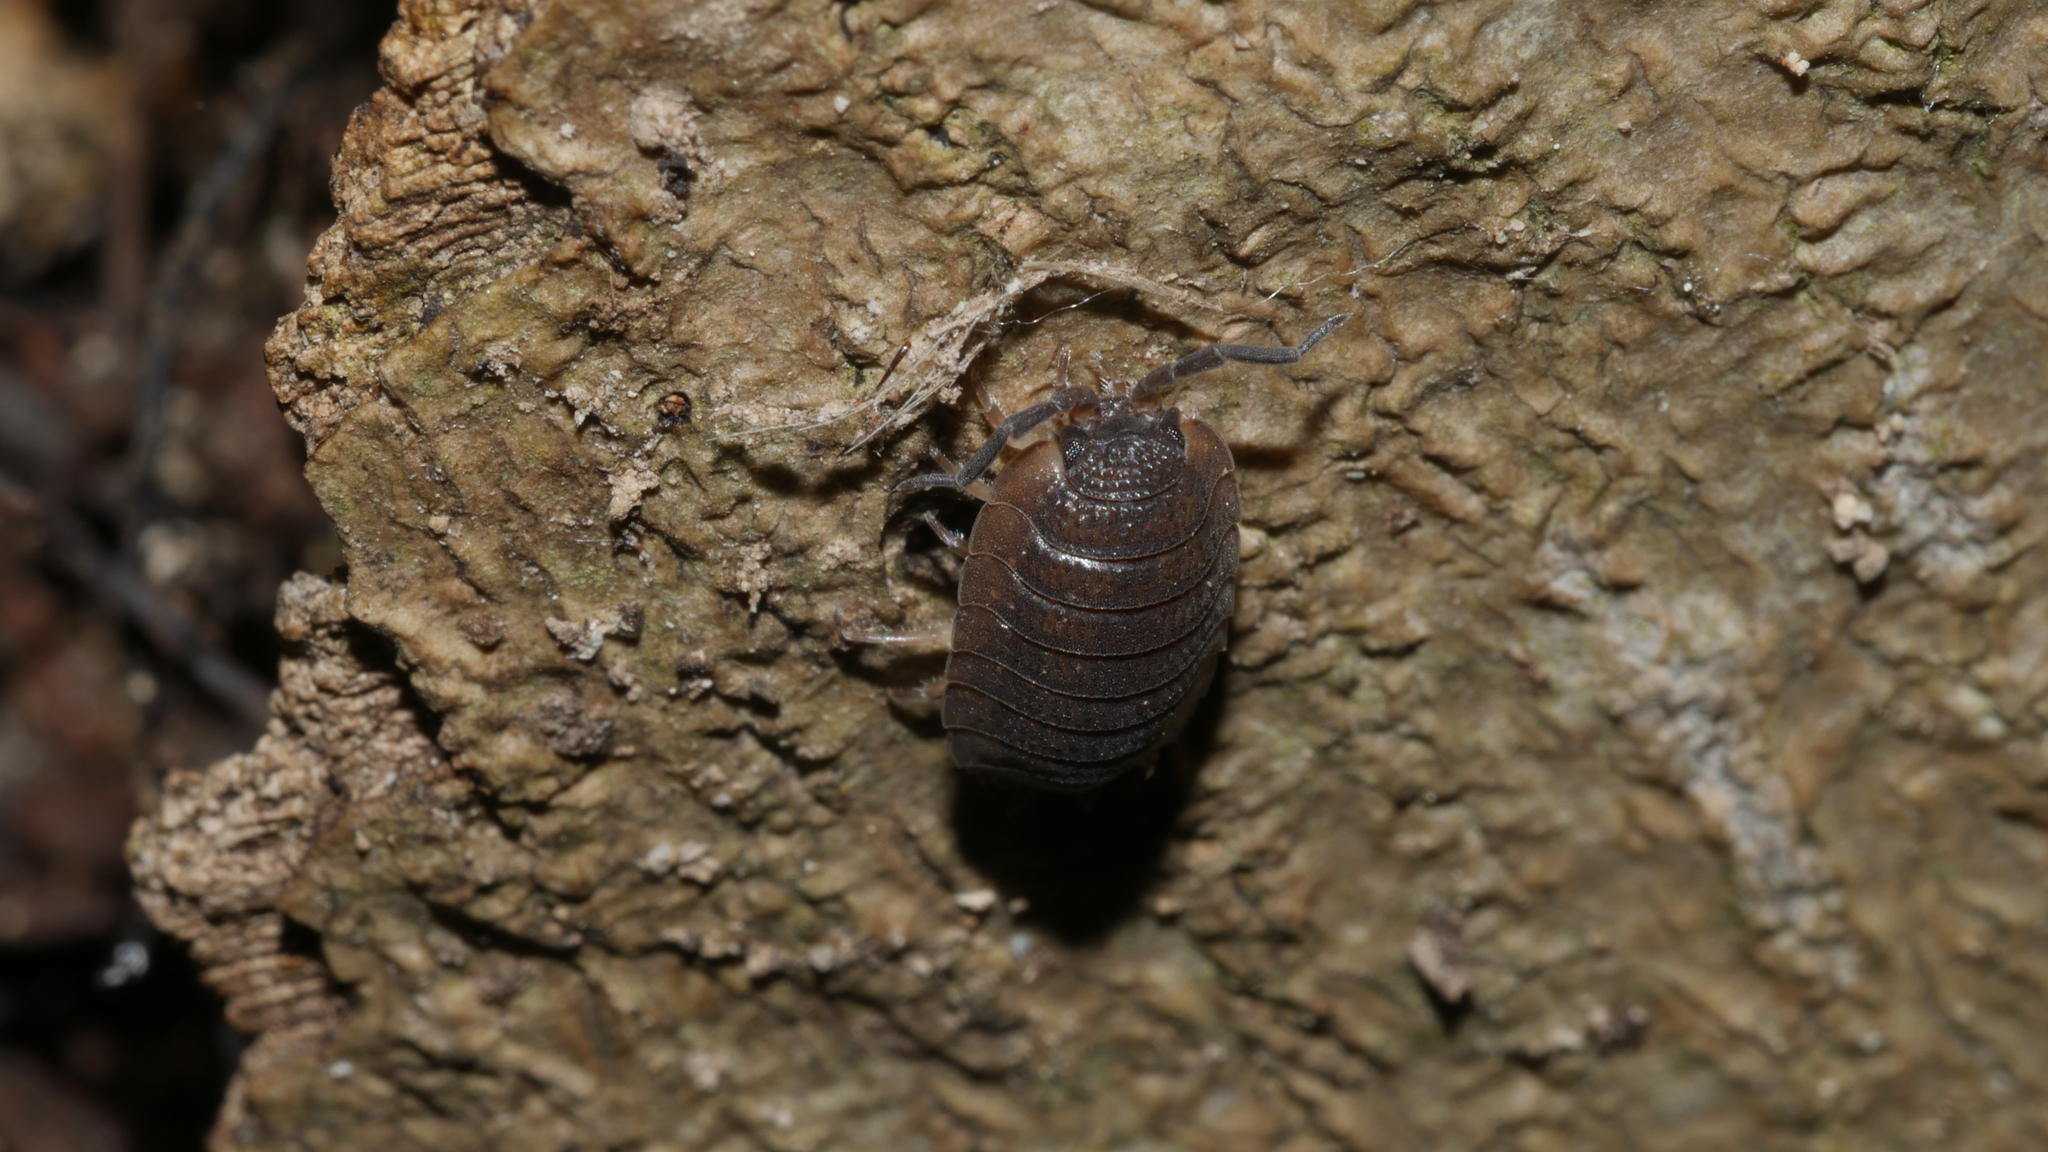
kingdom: Animalia
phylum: Arthropoda
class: Malacostraca
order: Isopoda
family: Porcellionidae
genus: Porcellio
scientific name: Porcellio scaber
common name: Common rough woodlouse
